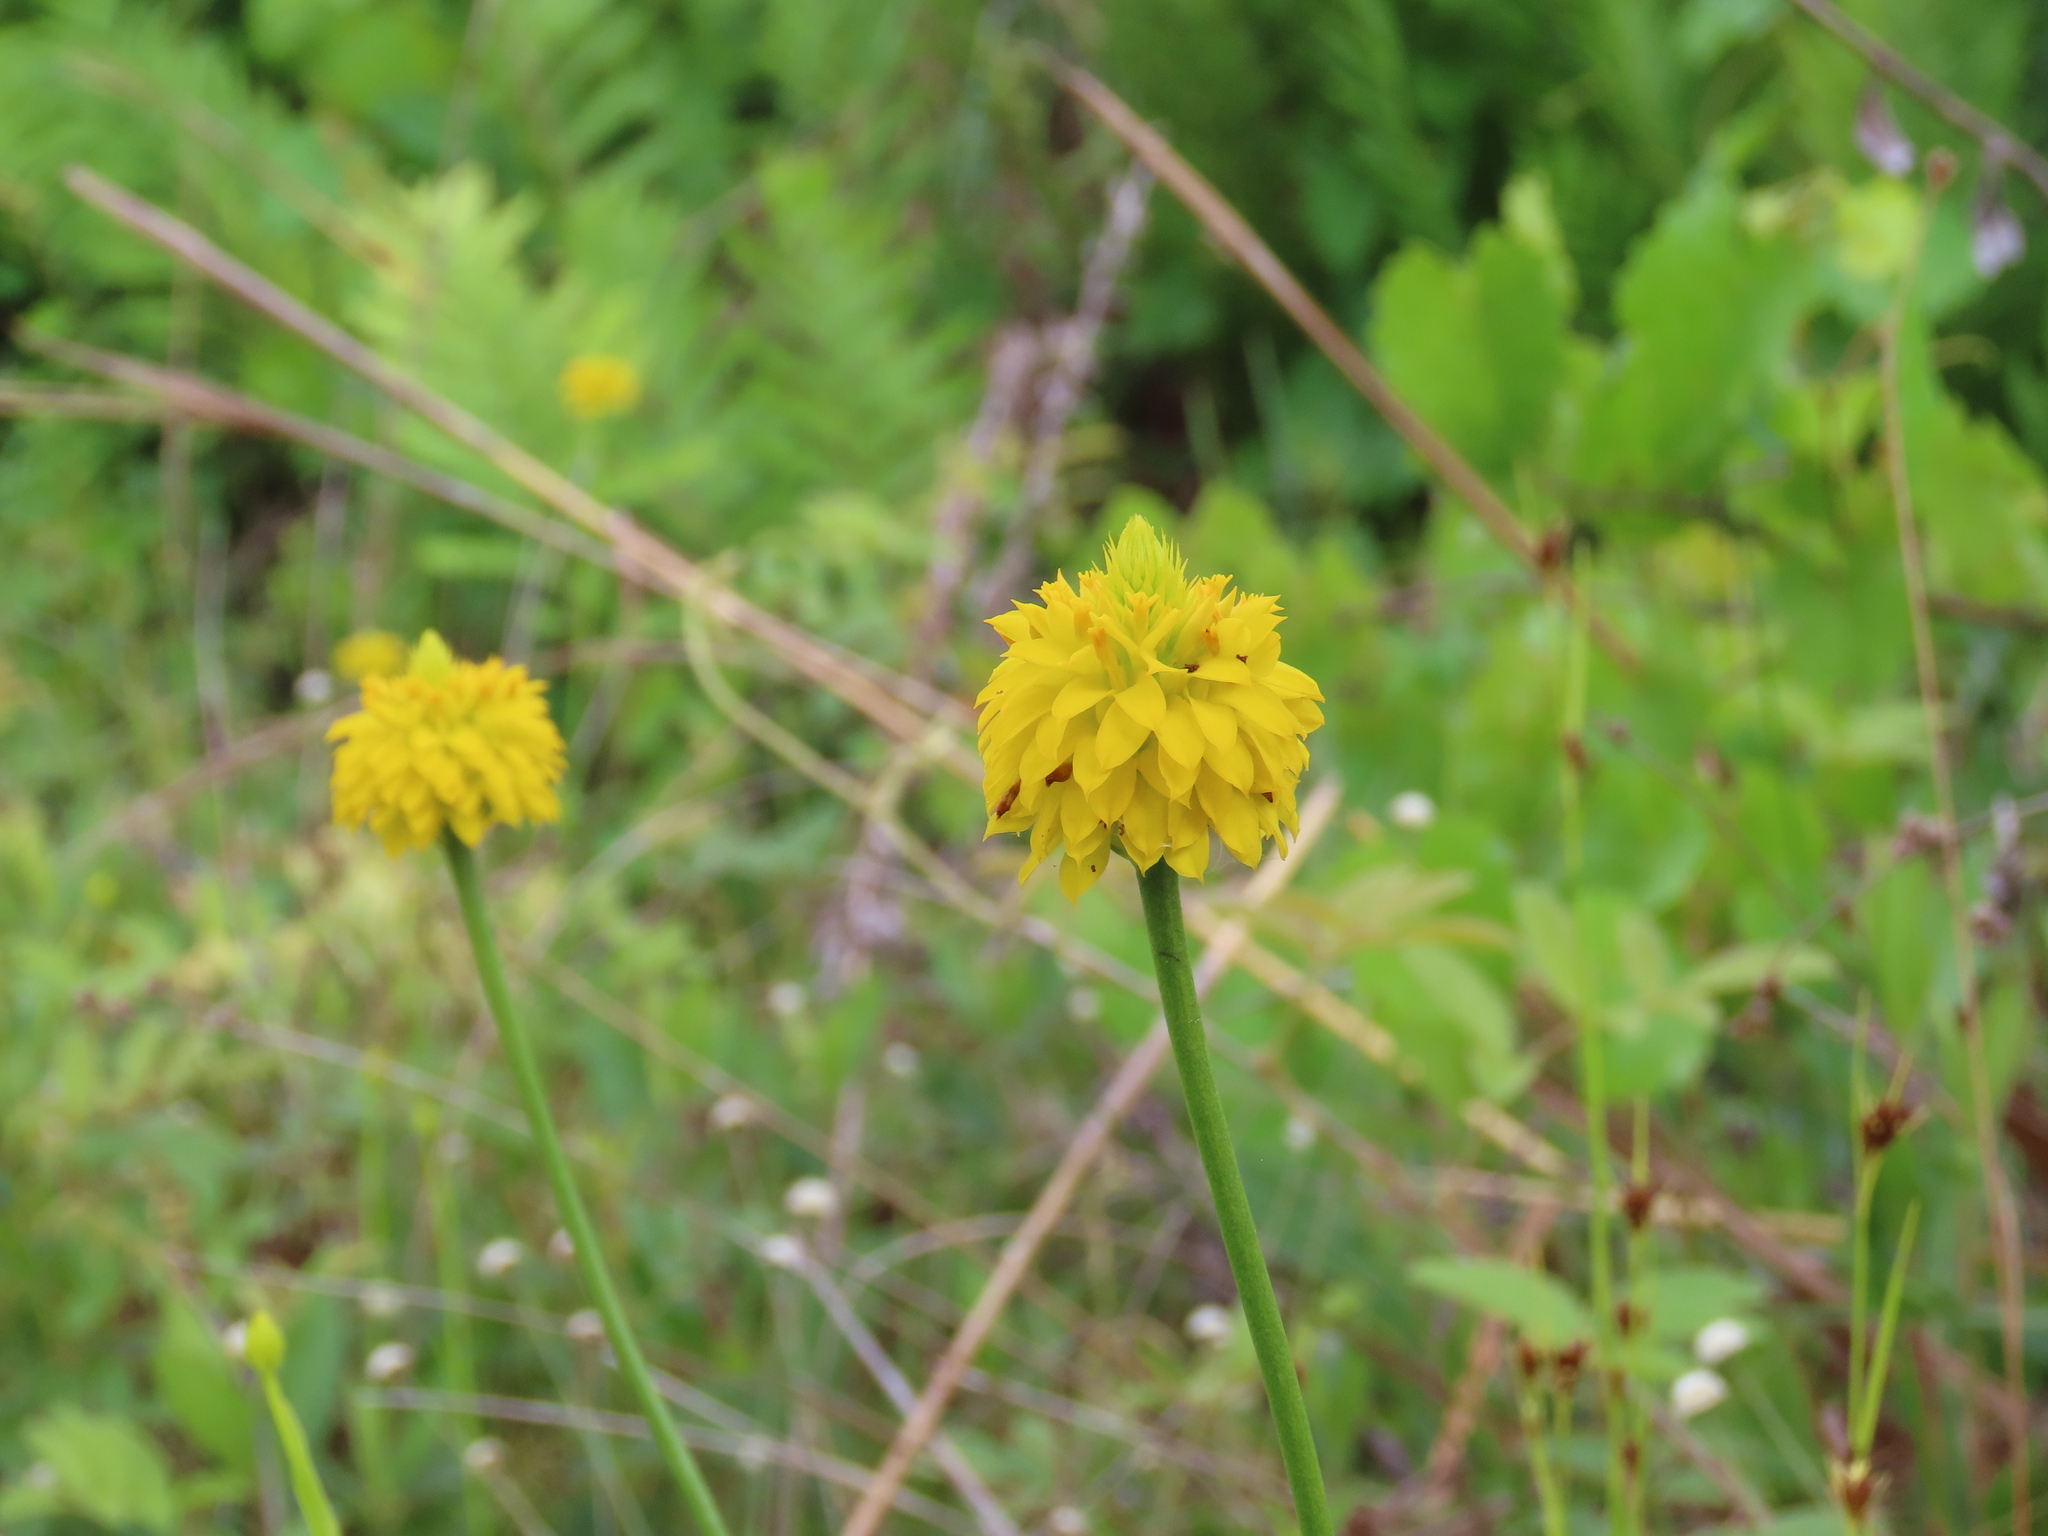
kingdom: Plantae
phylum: Tracheophyta
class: Magnoliopsida
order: Fabales
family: Polygalaceae
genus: Polygala
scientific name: Polygala rugelii
